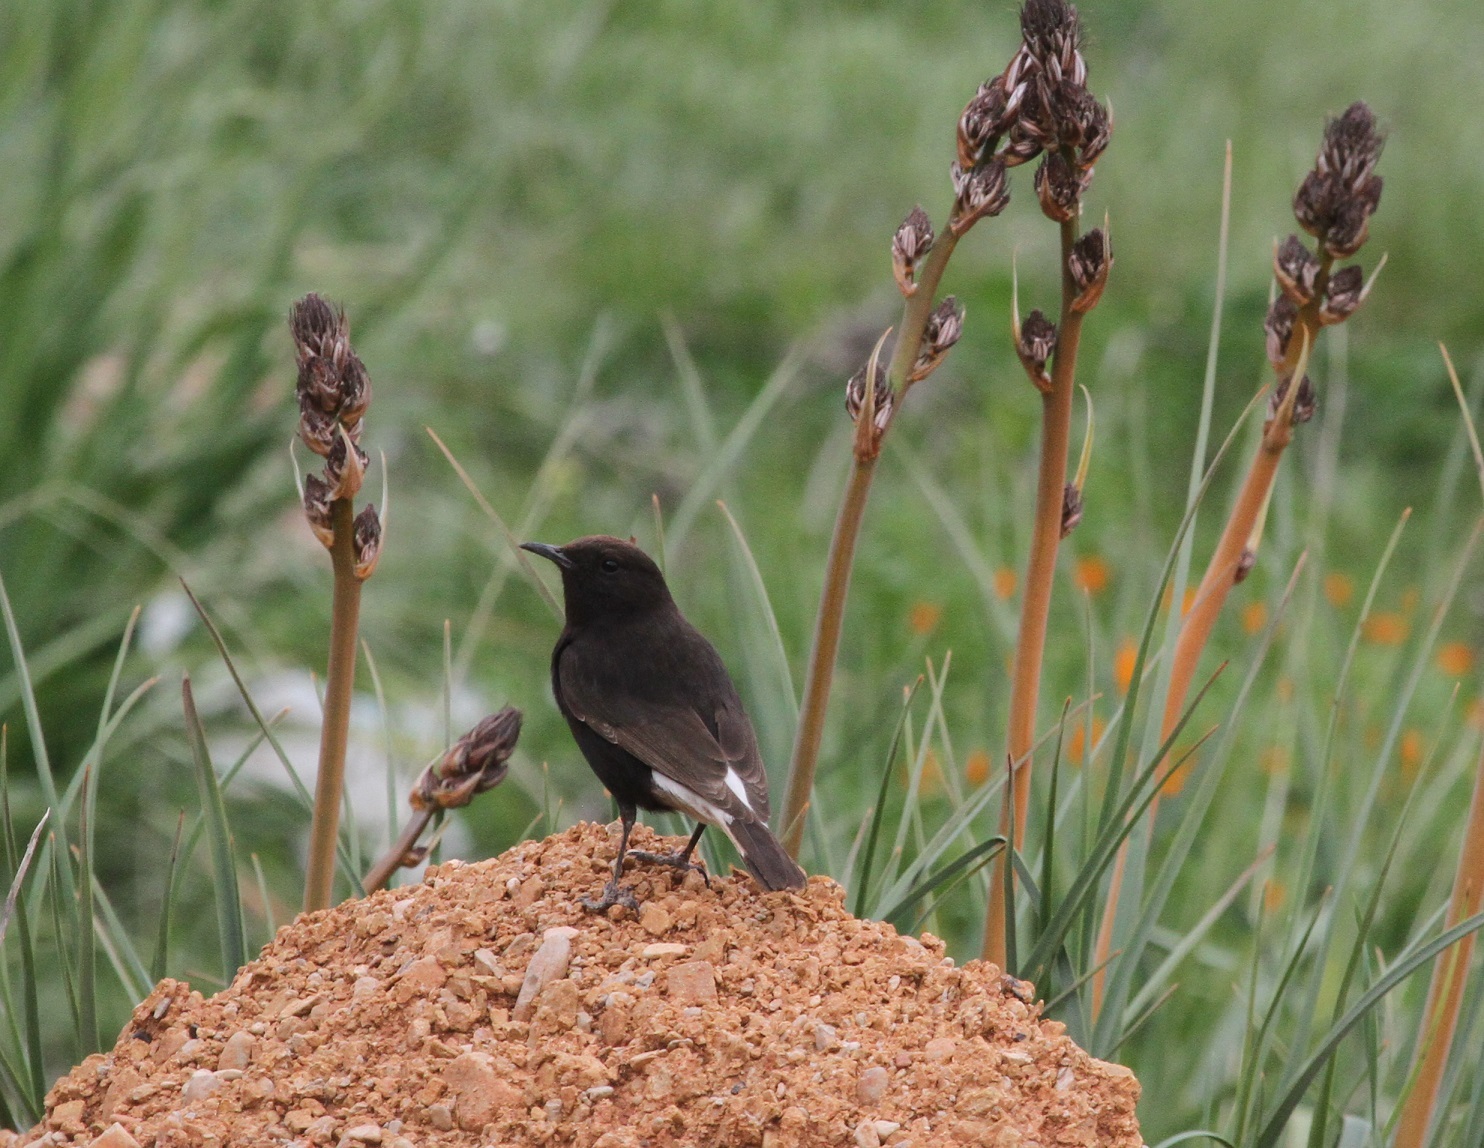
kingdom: Animalia
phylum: Chordata
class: Aves
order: Passeriformes
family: Muscicapidae
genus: Oenanthe
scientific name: Oenanthe leucura
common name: Black wheatear
